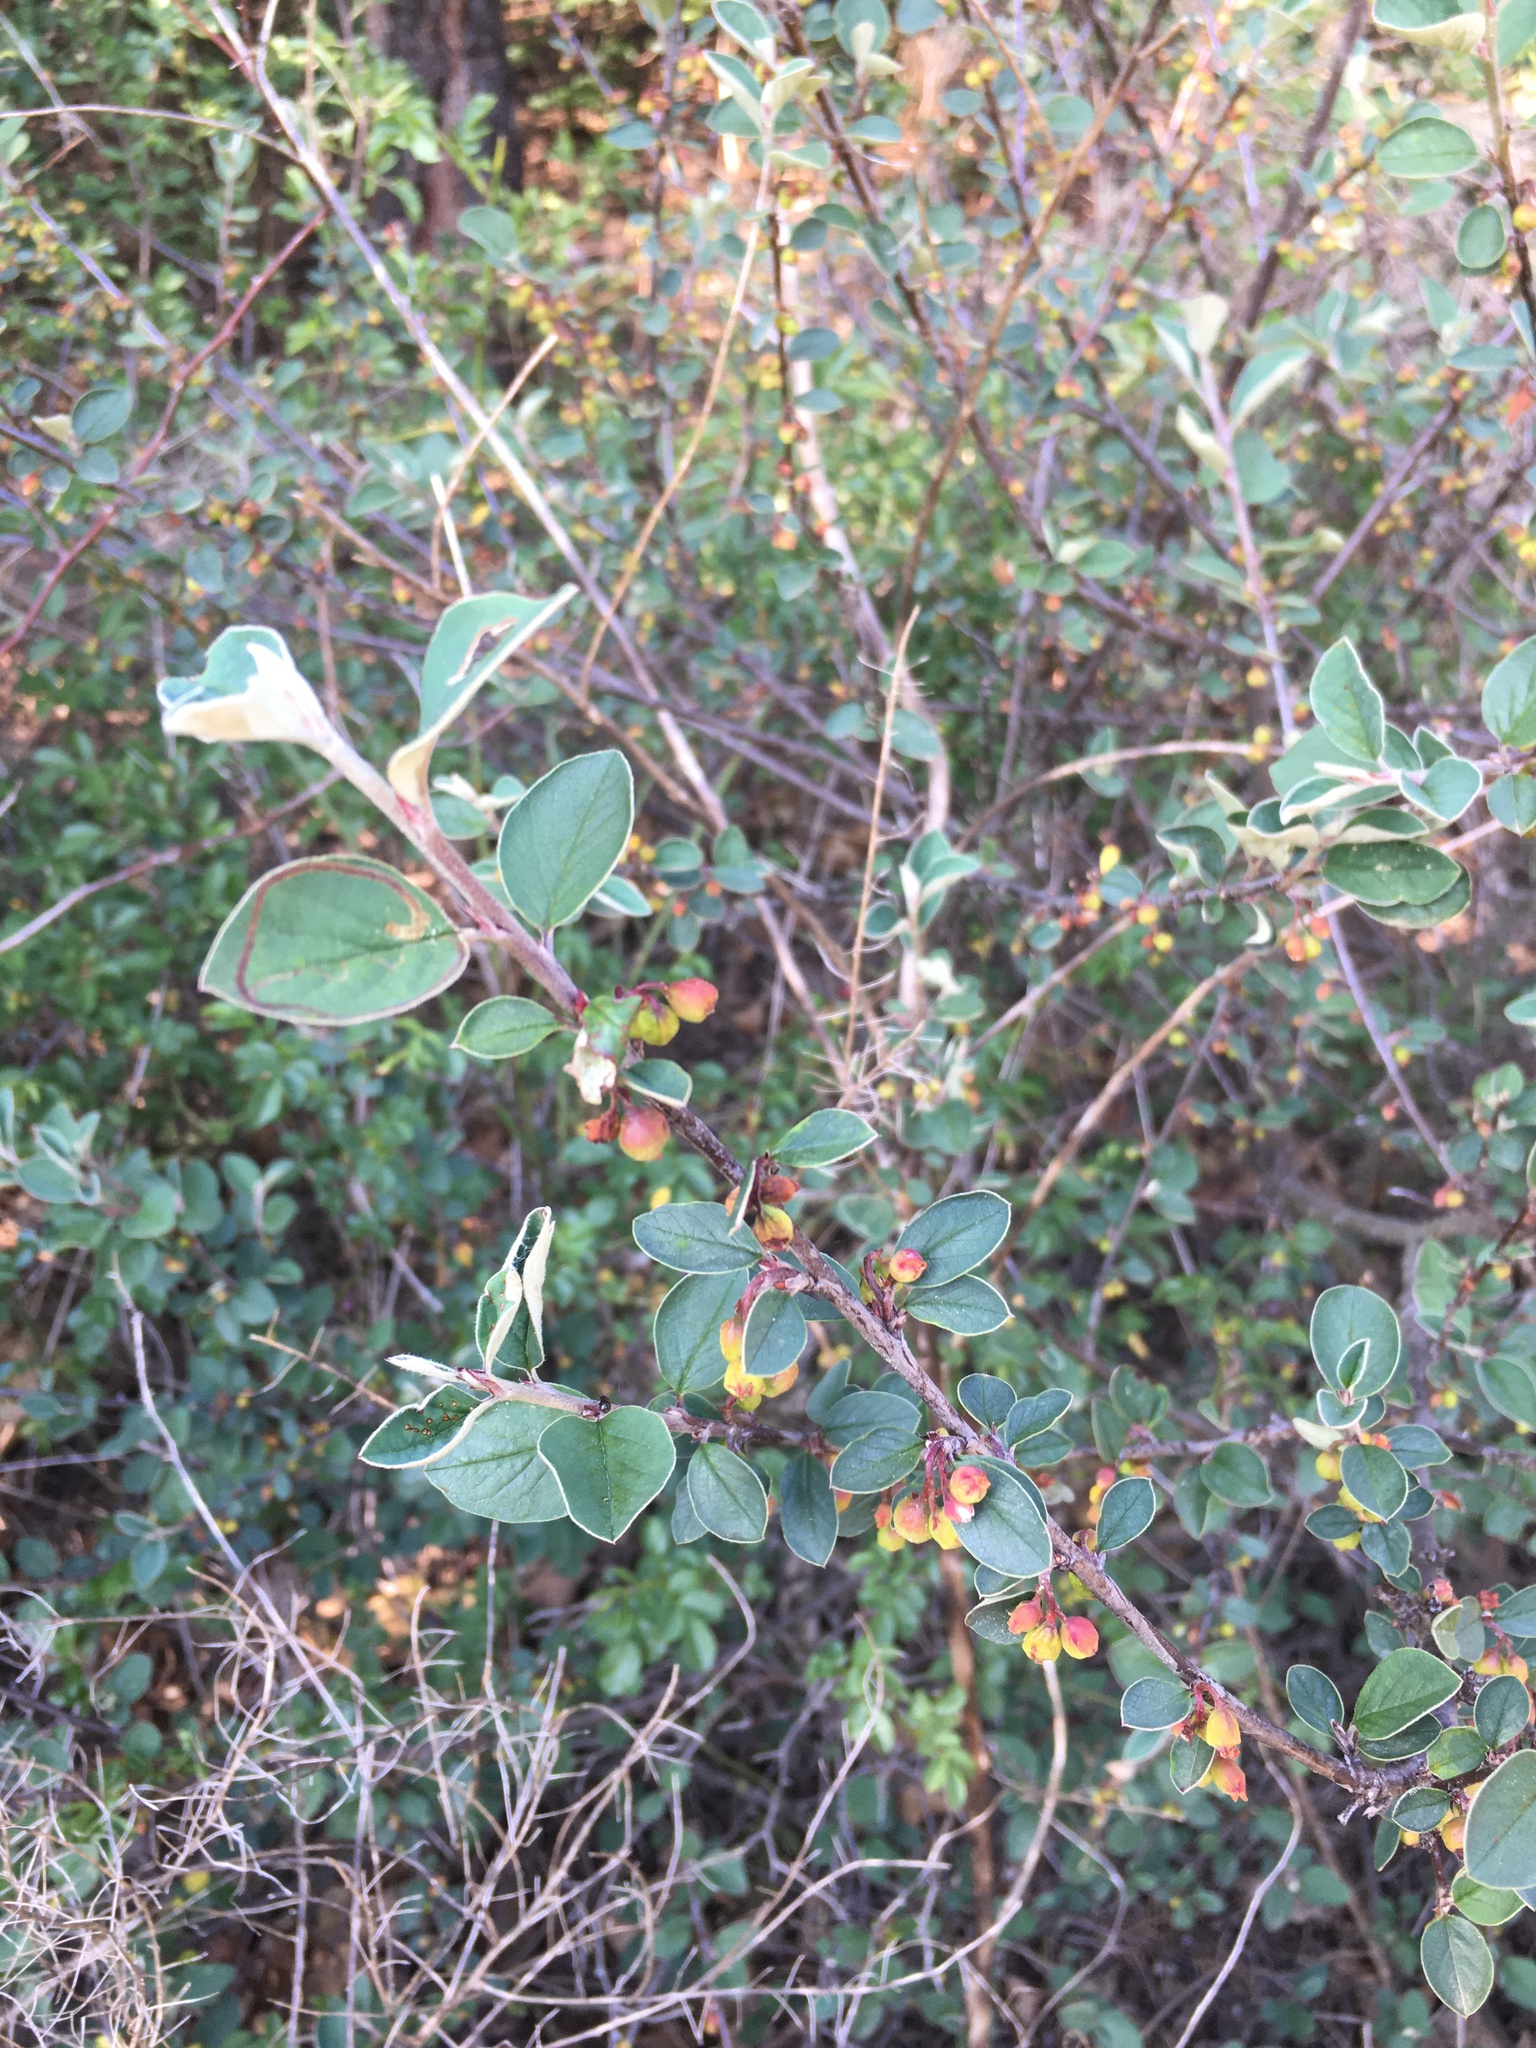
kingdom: Plantae
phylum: Tracheophyta
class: Magnoliopsida
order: Rosales
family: Rosaceae
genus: Cotoneaster
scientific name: Cotoneaster integerrimus
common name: Wild cotoneaster
